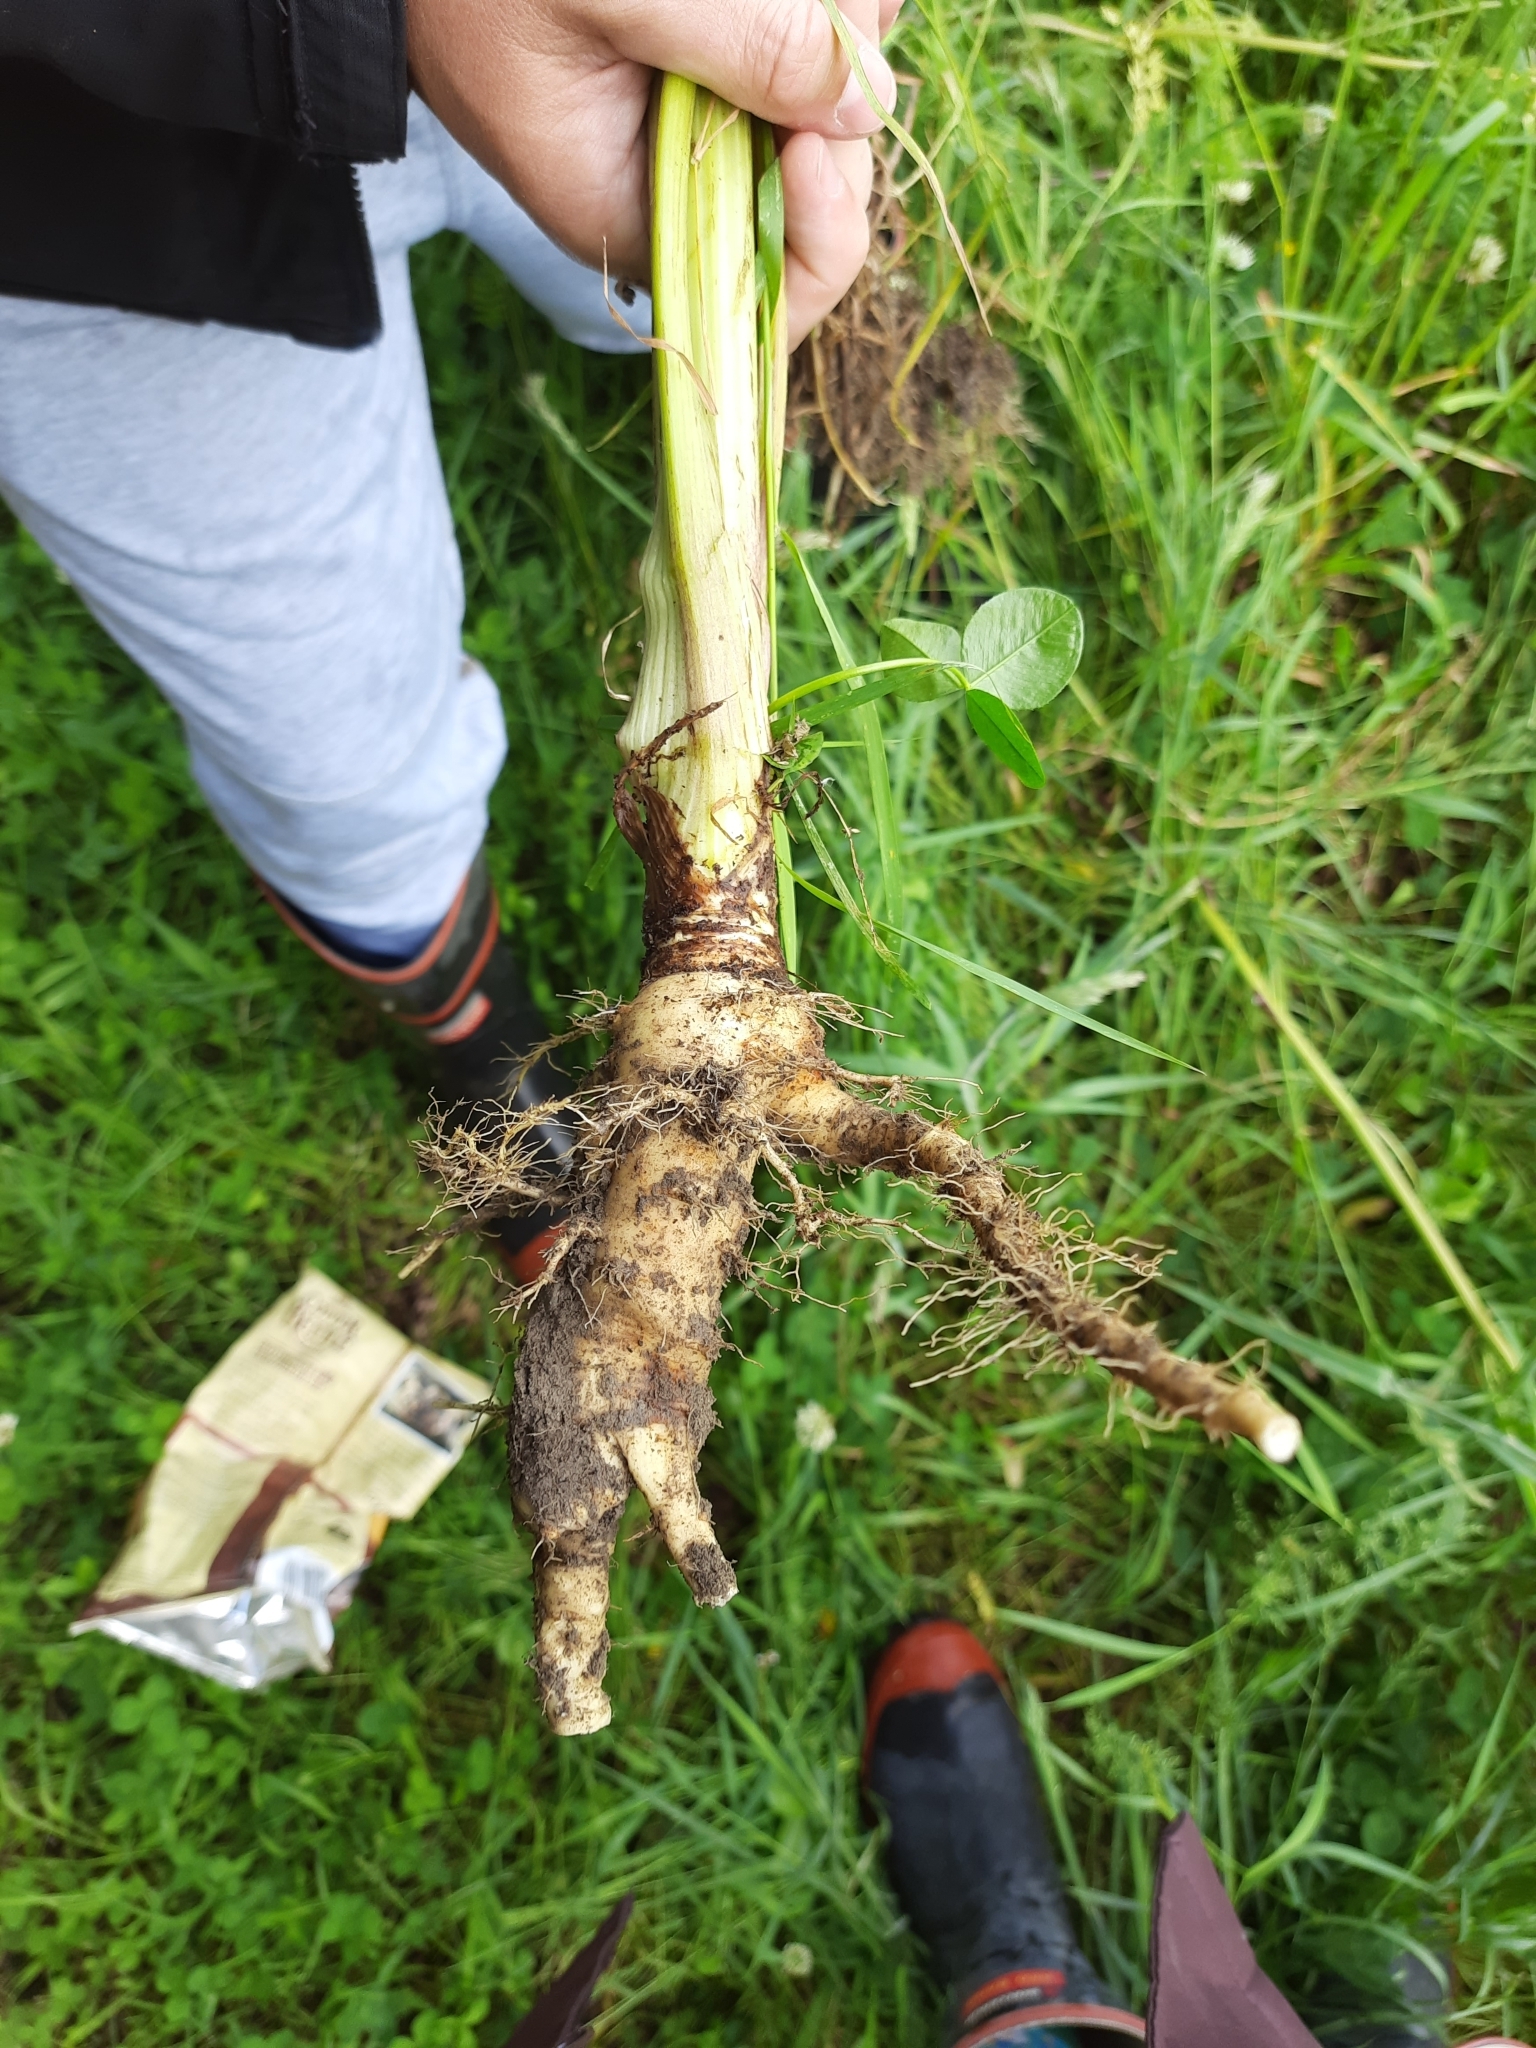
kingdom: Plantae
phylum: Tracheophyta
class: Magnoliopsida
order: Apiales
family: Apiaceae
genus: Pastinaca
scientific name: Pastinaca sativa
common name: Wild parsnip
